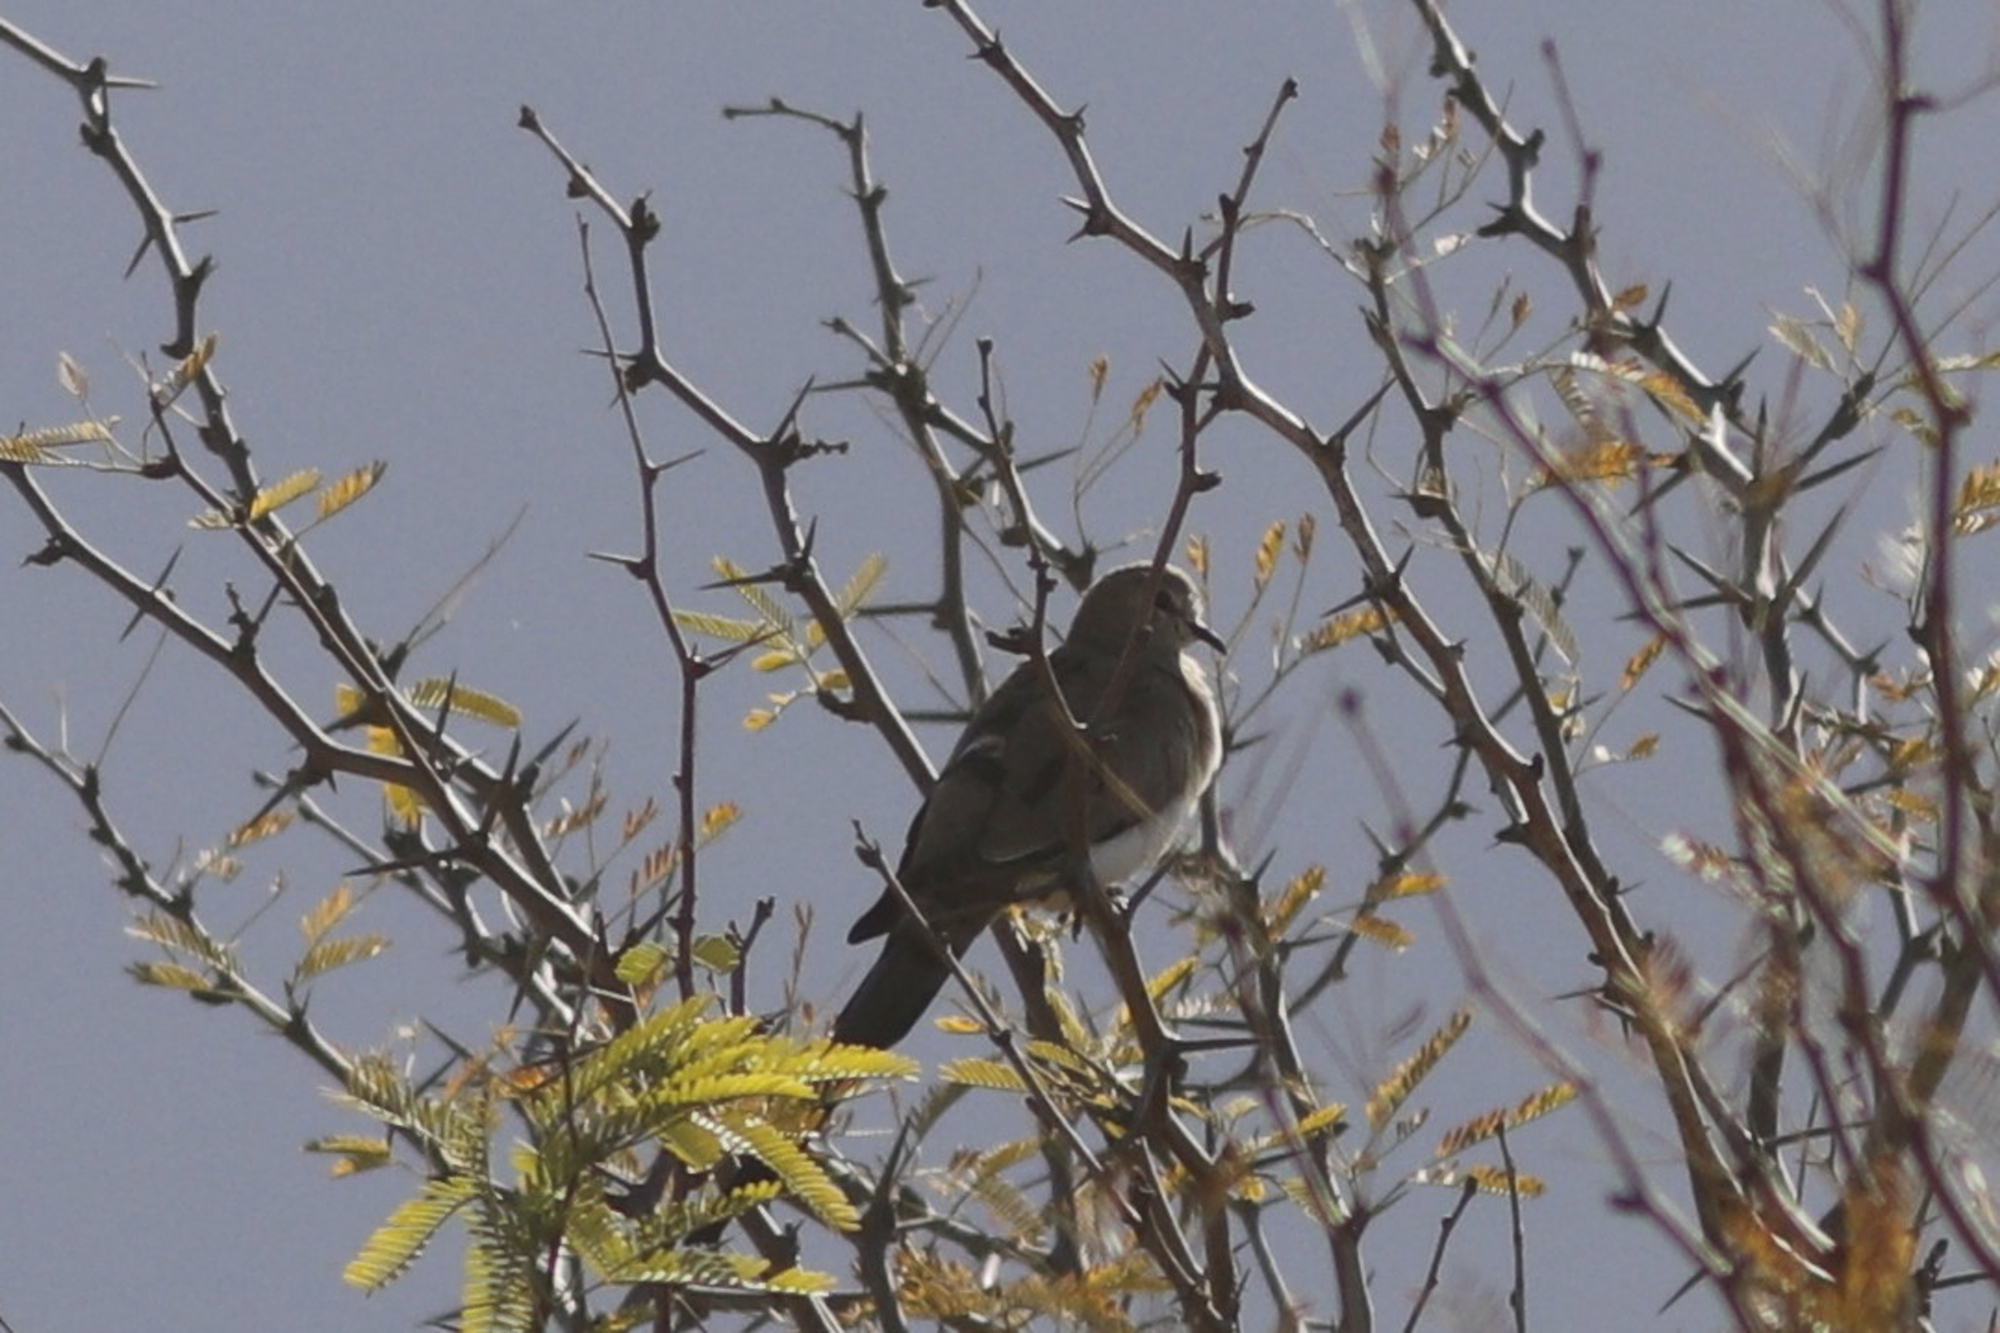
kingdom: Animalia
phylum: Chordata
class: Aves
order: Columbiformes
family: Columbidae
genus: Oena
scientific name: Oena capensis
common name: Namaqua dove
